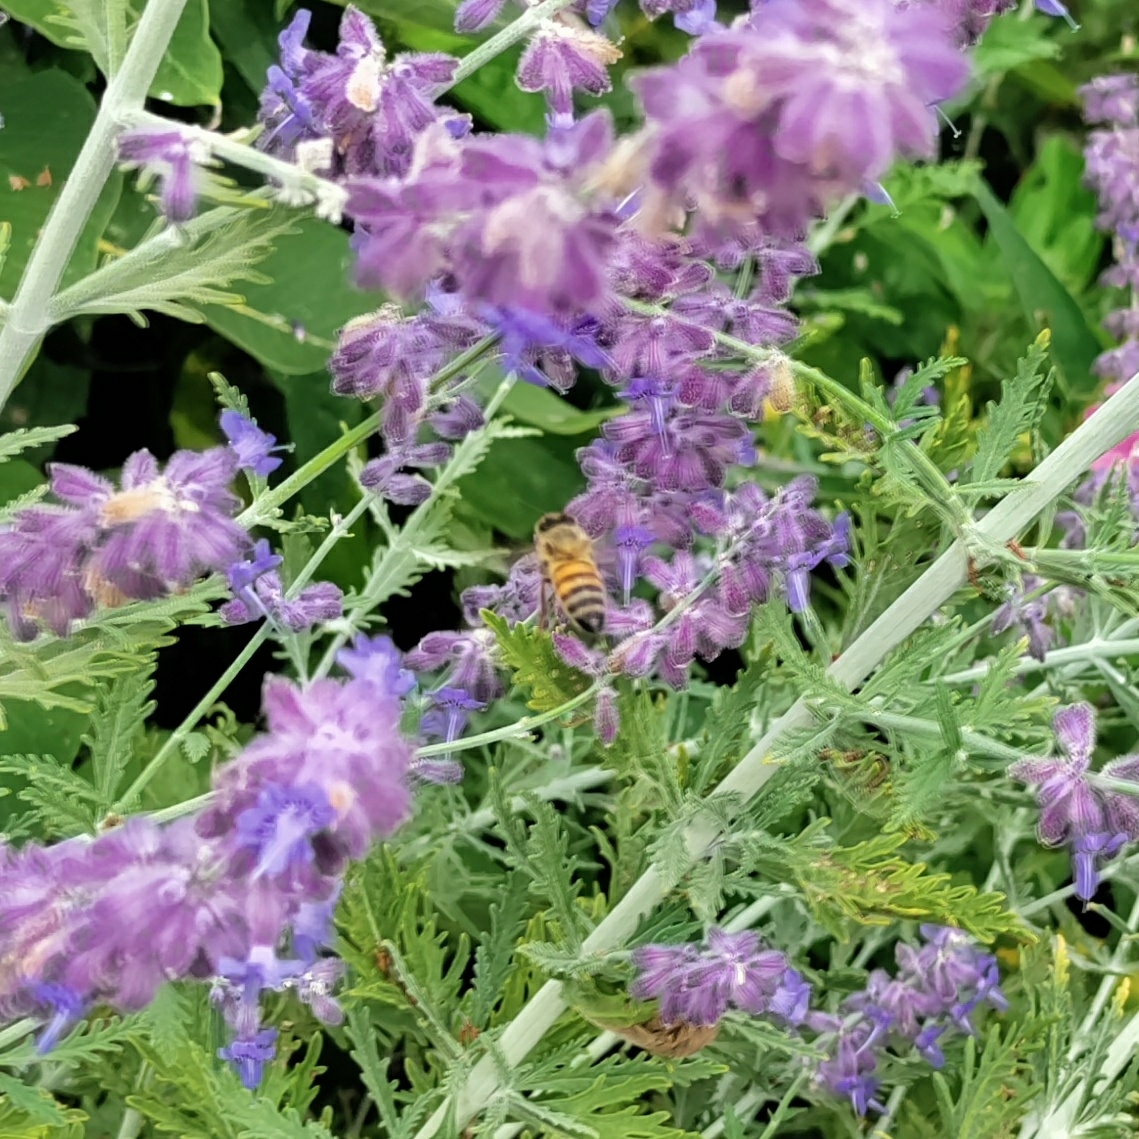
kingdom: Animalia
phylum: Arthropoda
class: Insecta
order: Hymenoptera
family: Apidae
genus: Apis
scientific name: Apis mellifera
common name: Honey bee
